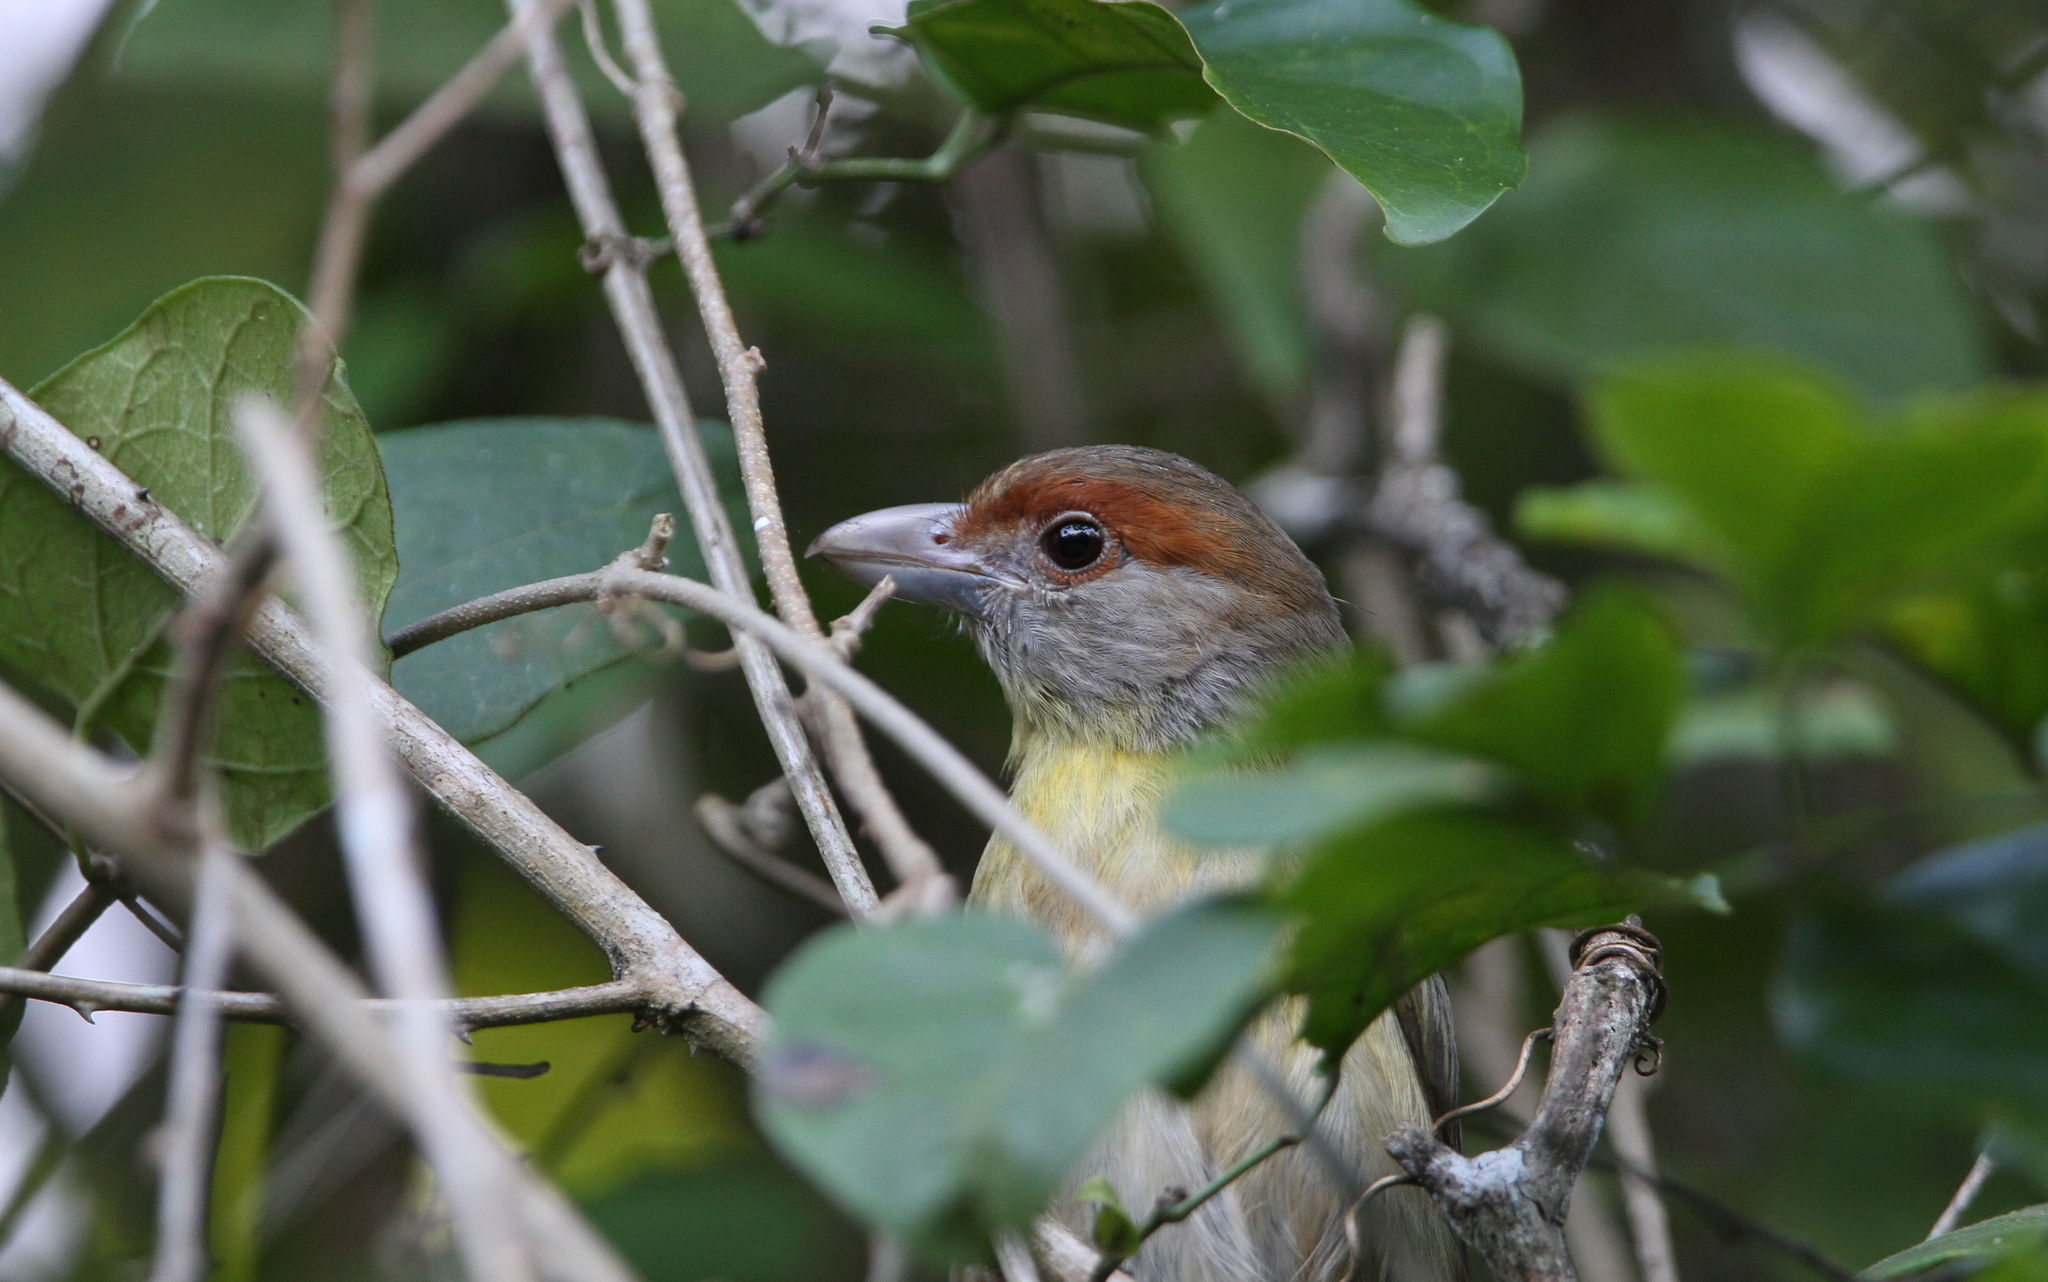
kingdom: Animalia
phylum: Chordata
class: Aves
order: Passeriformes
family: Vireonidae
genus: Cyclarhis
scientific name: Cyclarhis gujanensis
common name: Rufous-browed peppershrike
